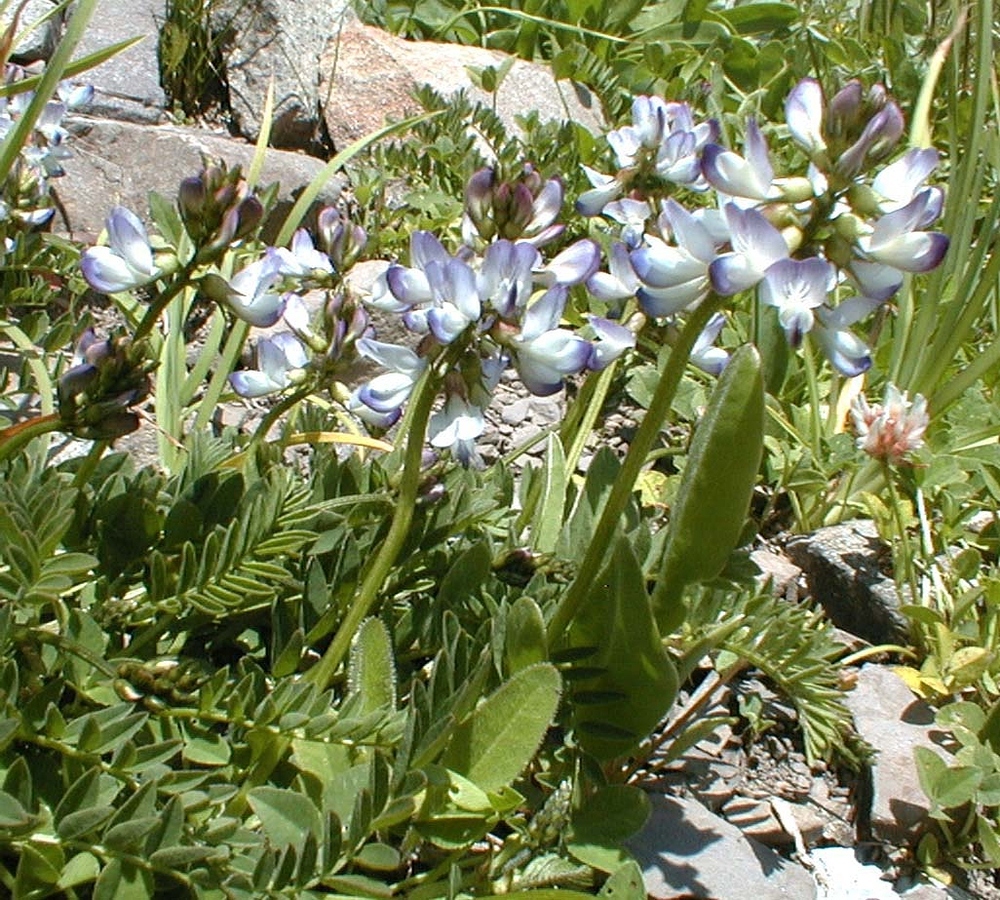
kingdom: Plantae
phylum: Tracheophyta
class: Magnoliopsida
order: Fabales
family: Fabaceae
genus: Astragalus
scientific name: Astragalus alpinus
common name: Alpine milk-vetch
